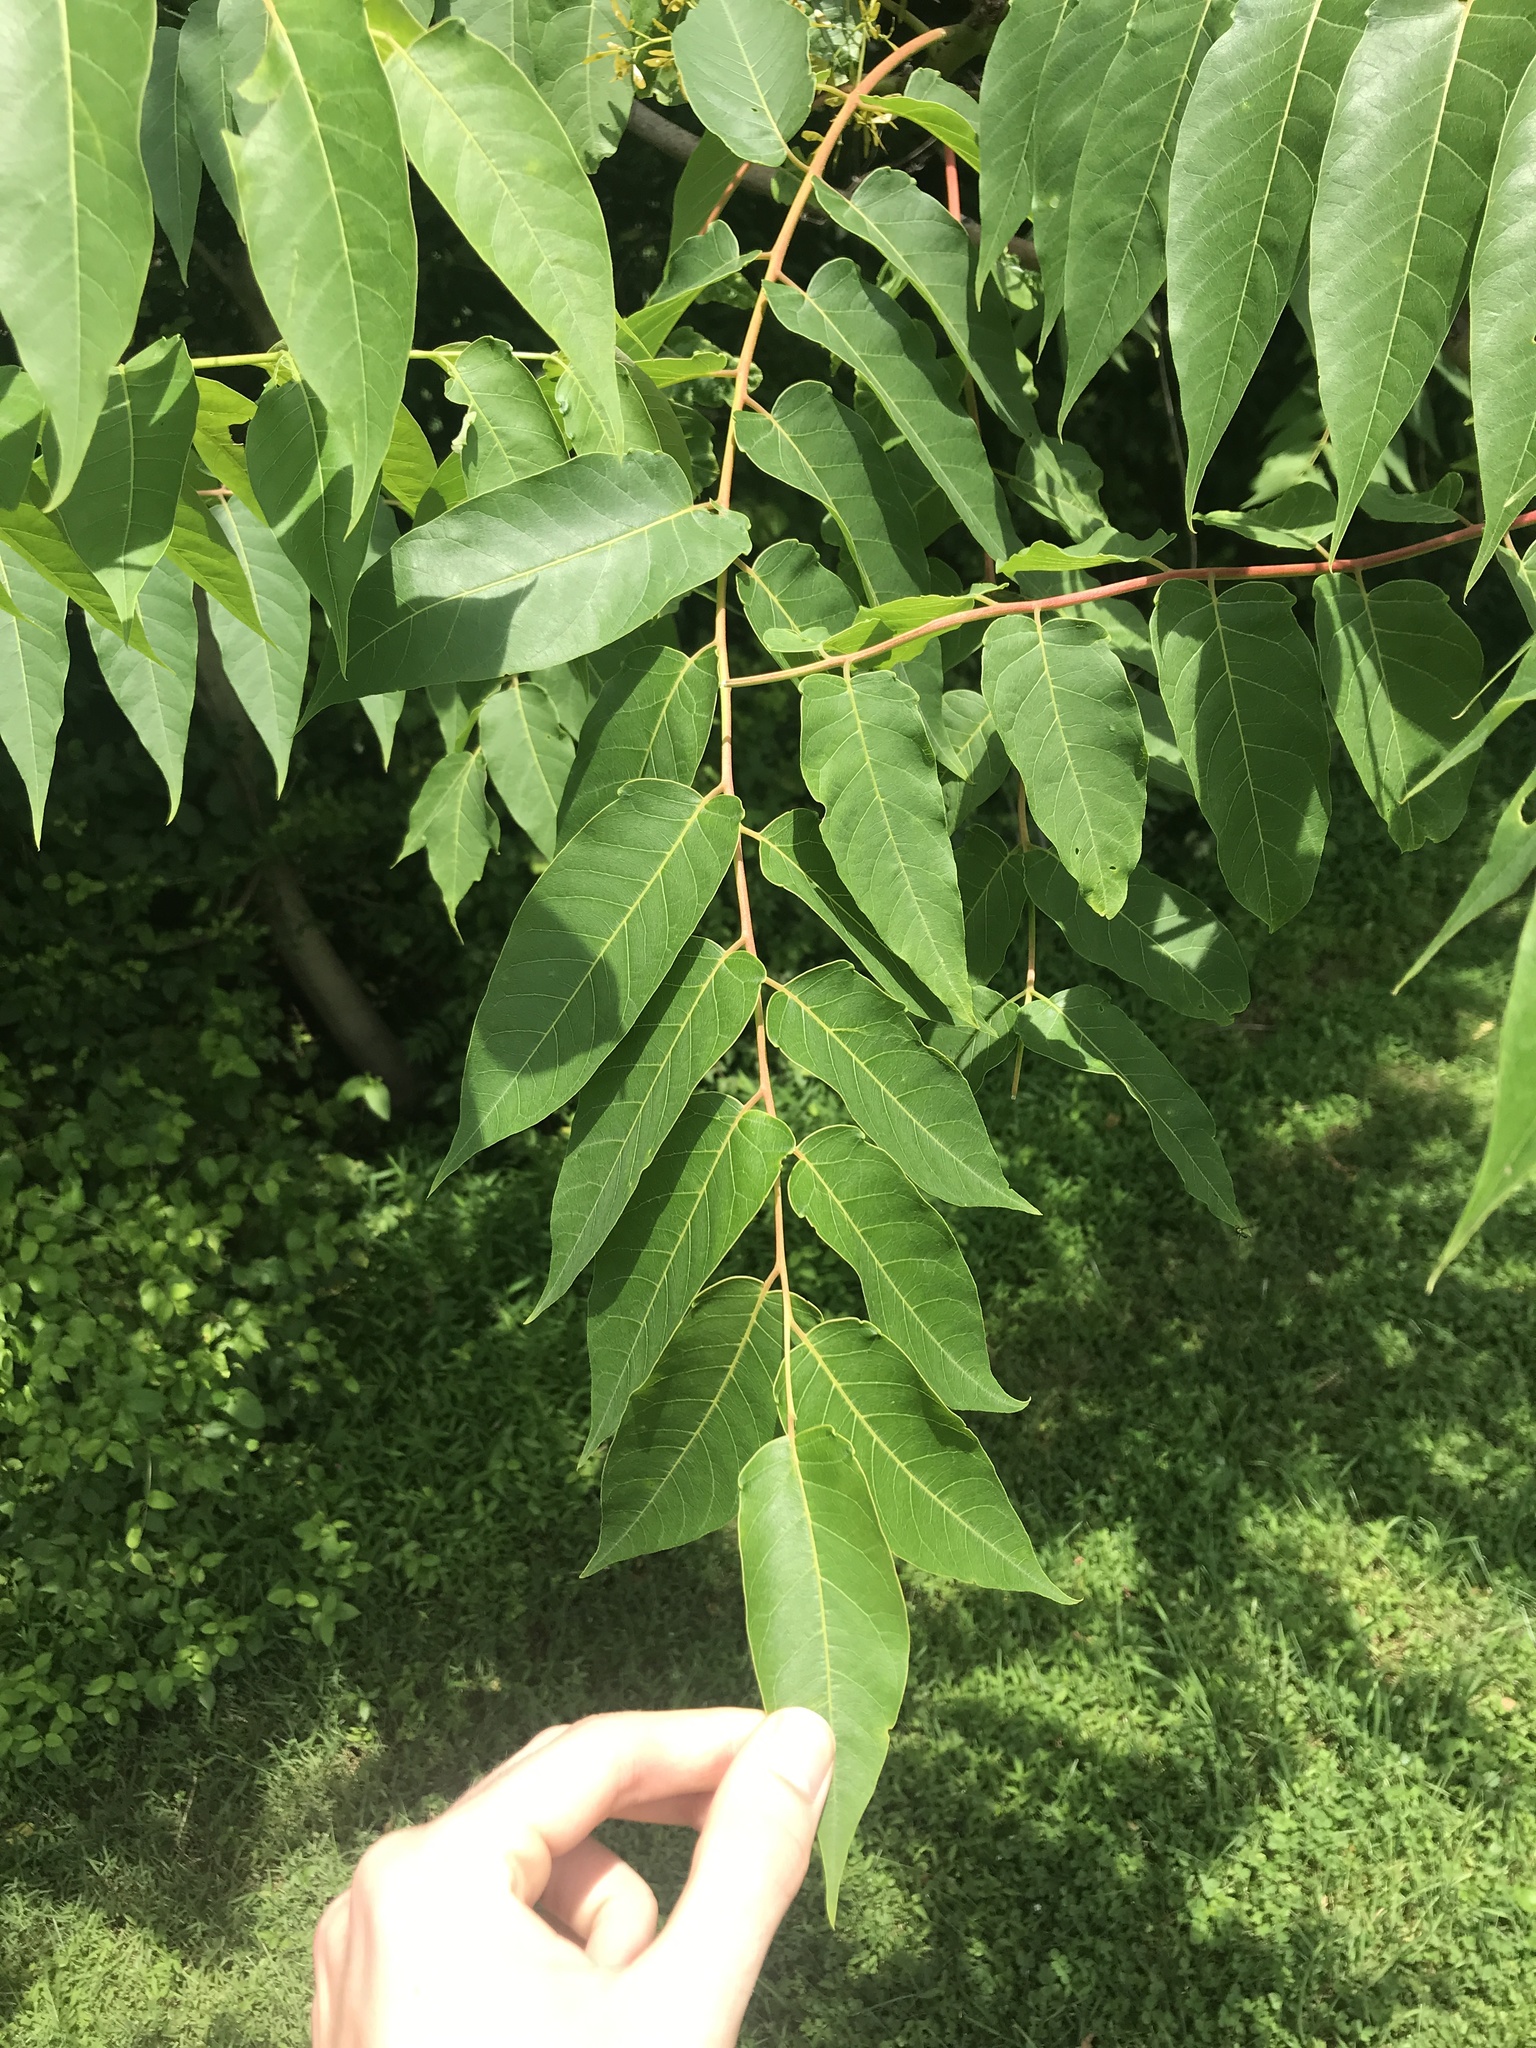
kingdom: Plantae
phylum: Tracheophyta
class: Magnoliopsida
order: Sapindales
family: Simaroubaceae
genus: Ailanthus
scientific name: Ailanthus altissima
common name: Tree-of-heaven
